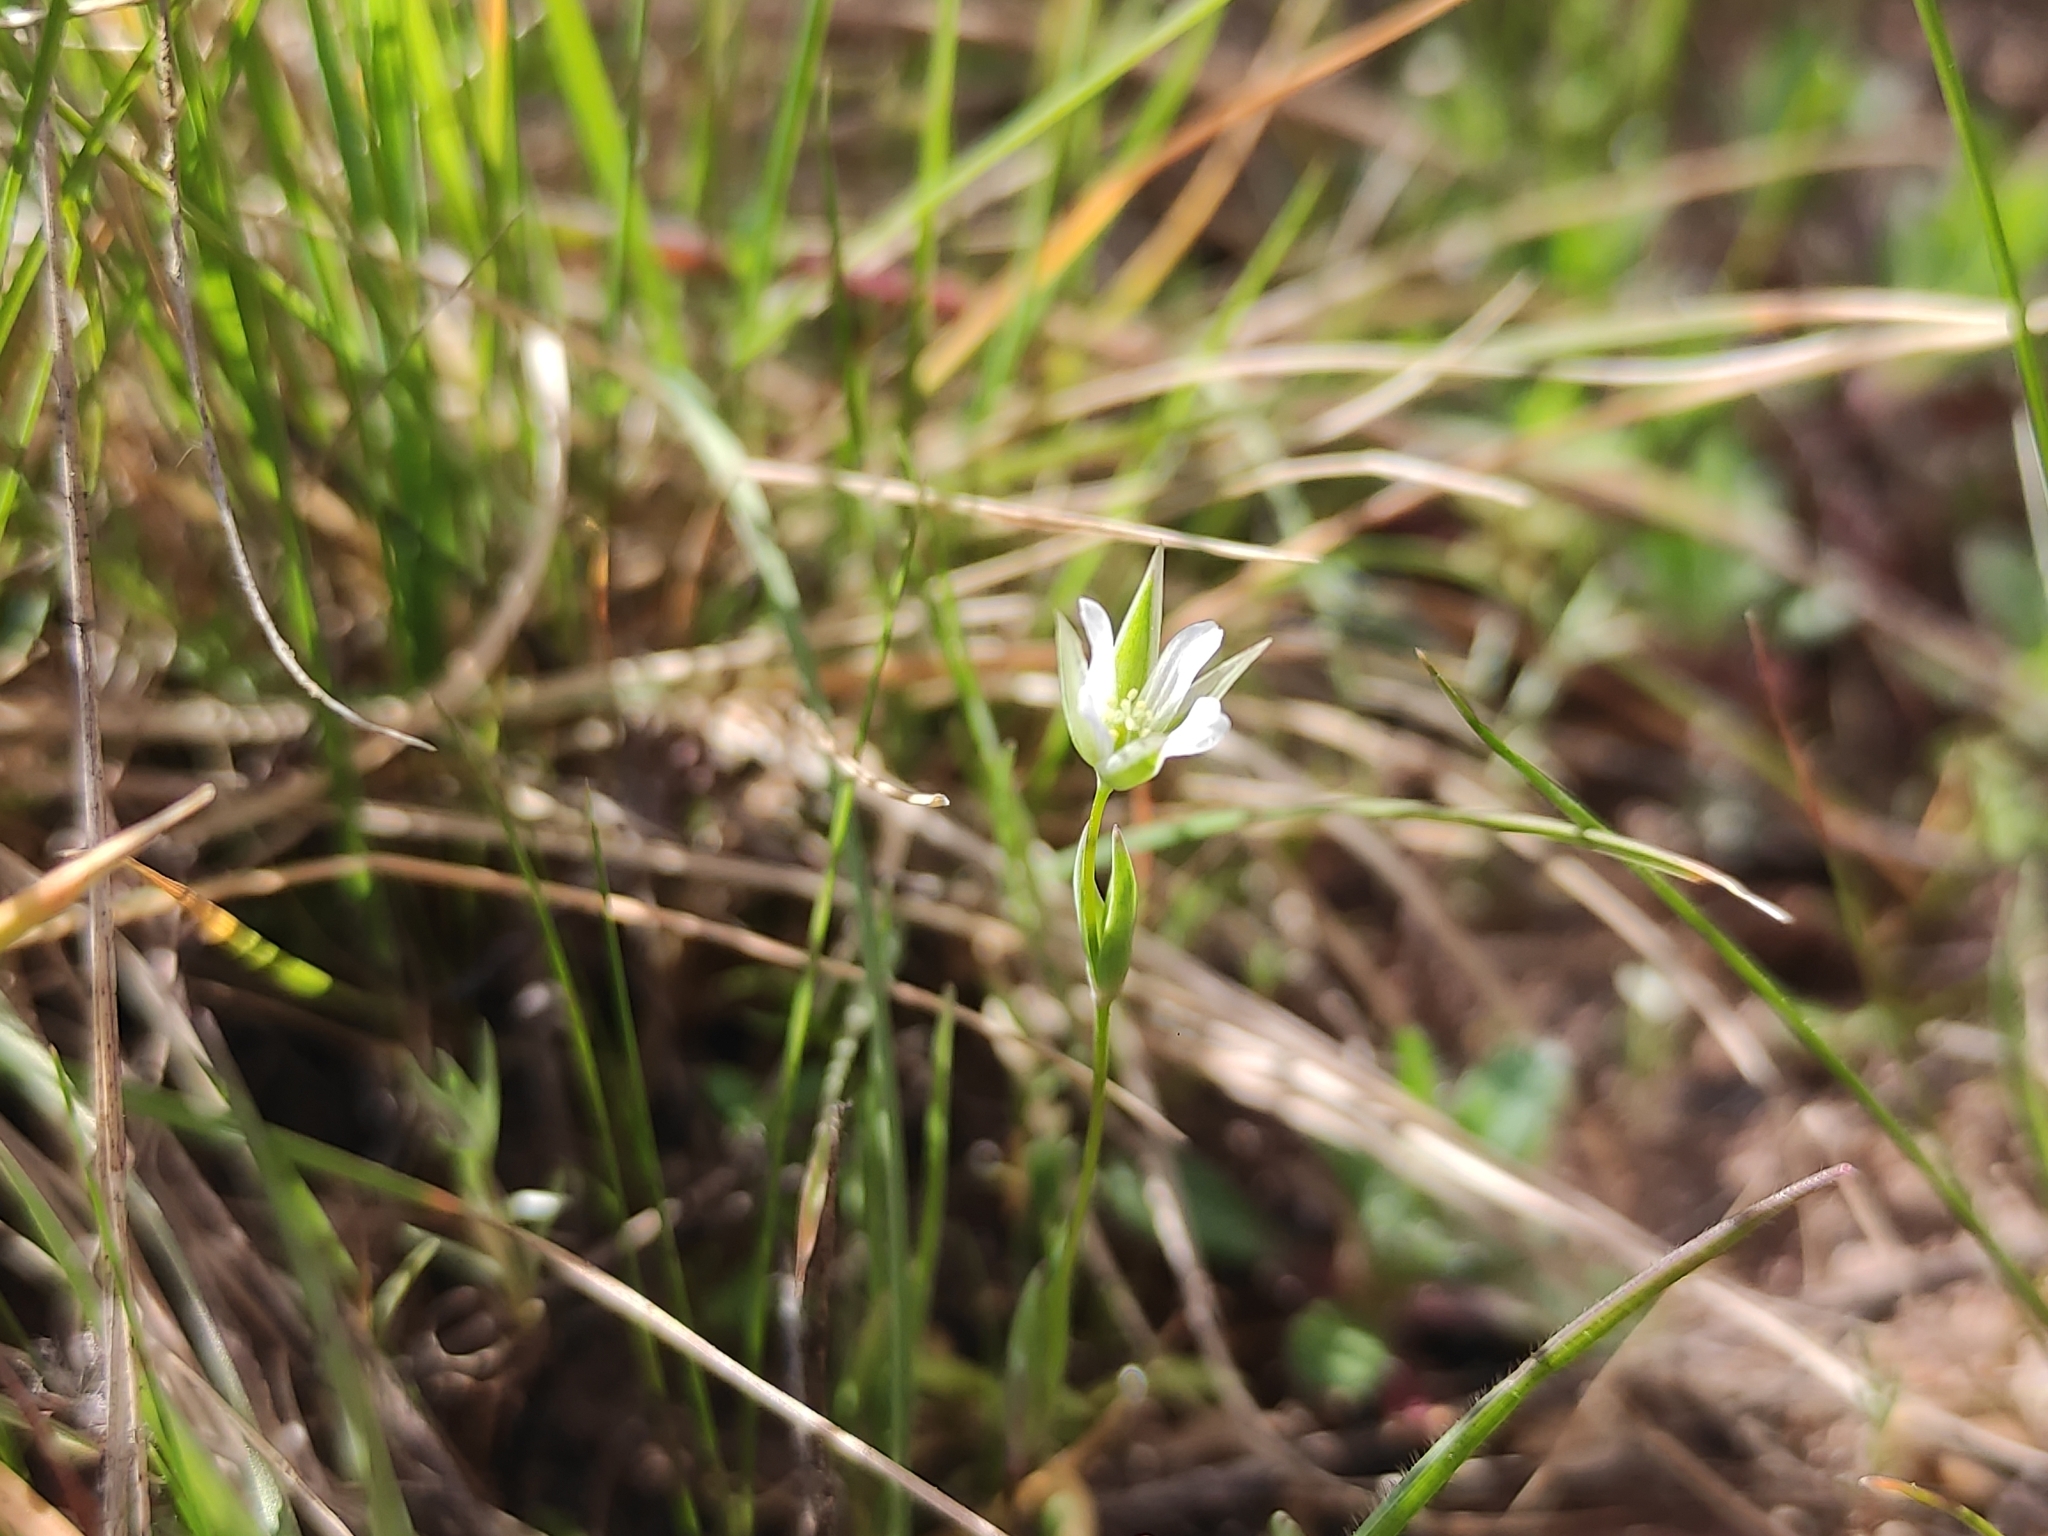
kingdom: Plantae
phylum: Tracheophyta
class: Magnoliopsida
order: Caryophyllales
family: Caryophyllaceae
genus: Moenchia
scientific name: Moenchia erecta
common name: Upright chickweed
